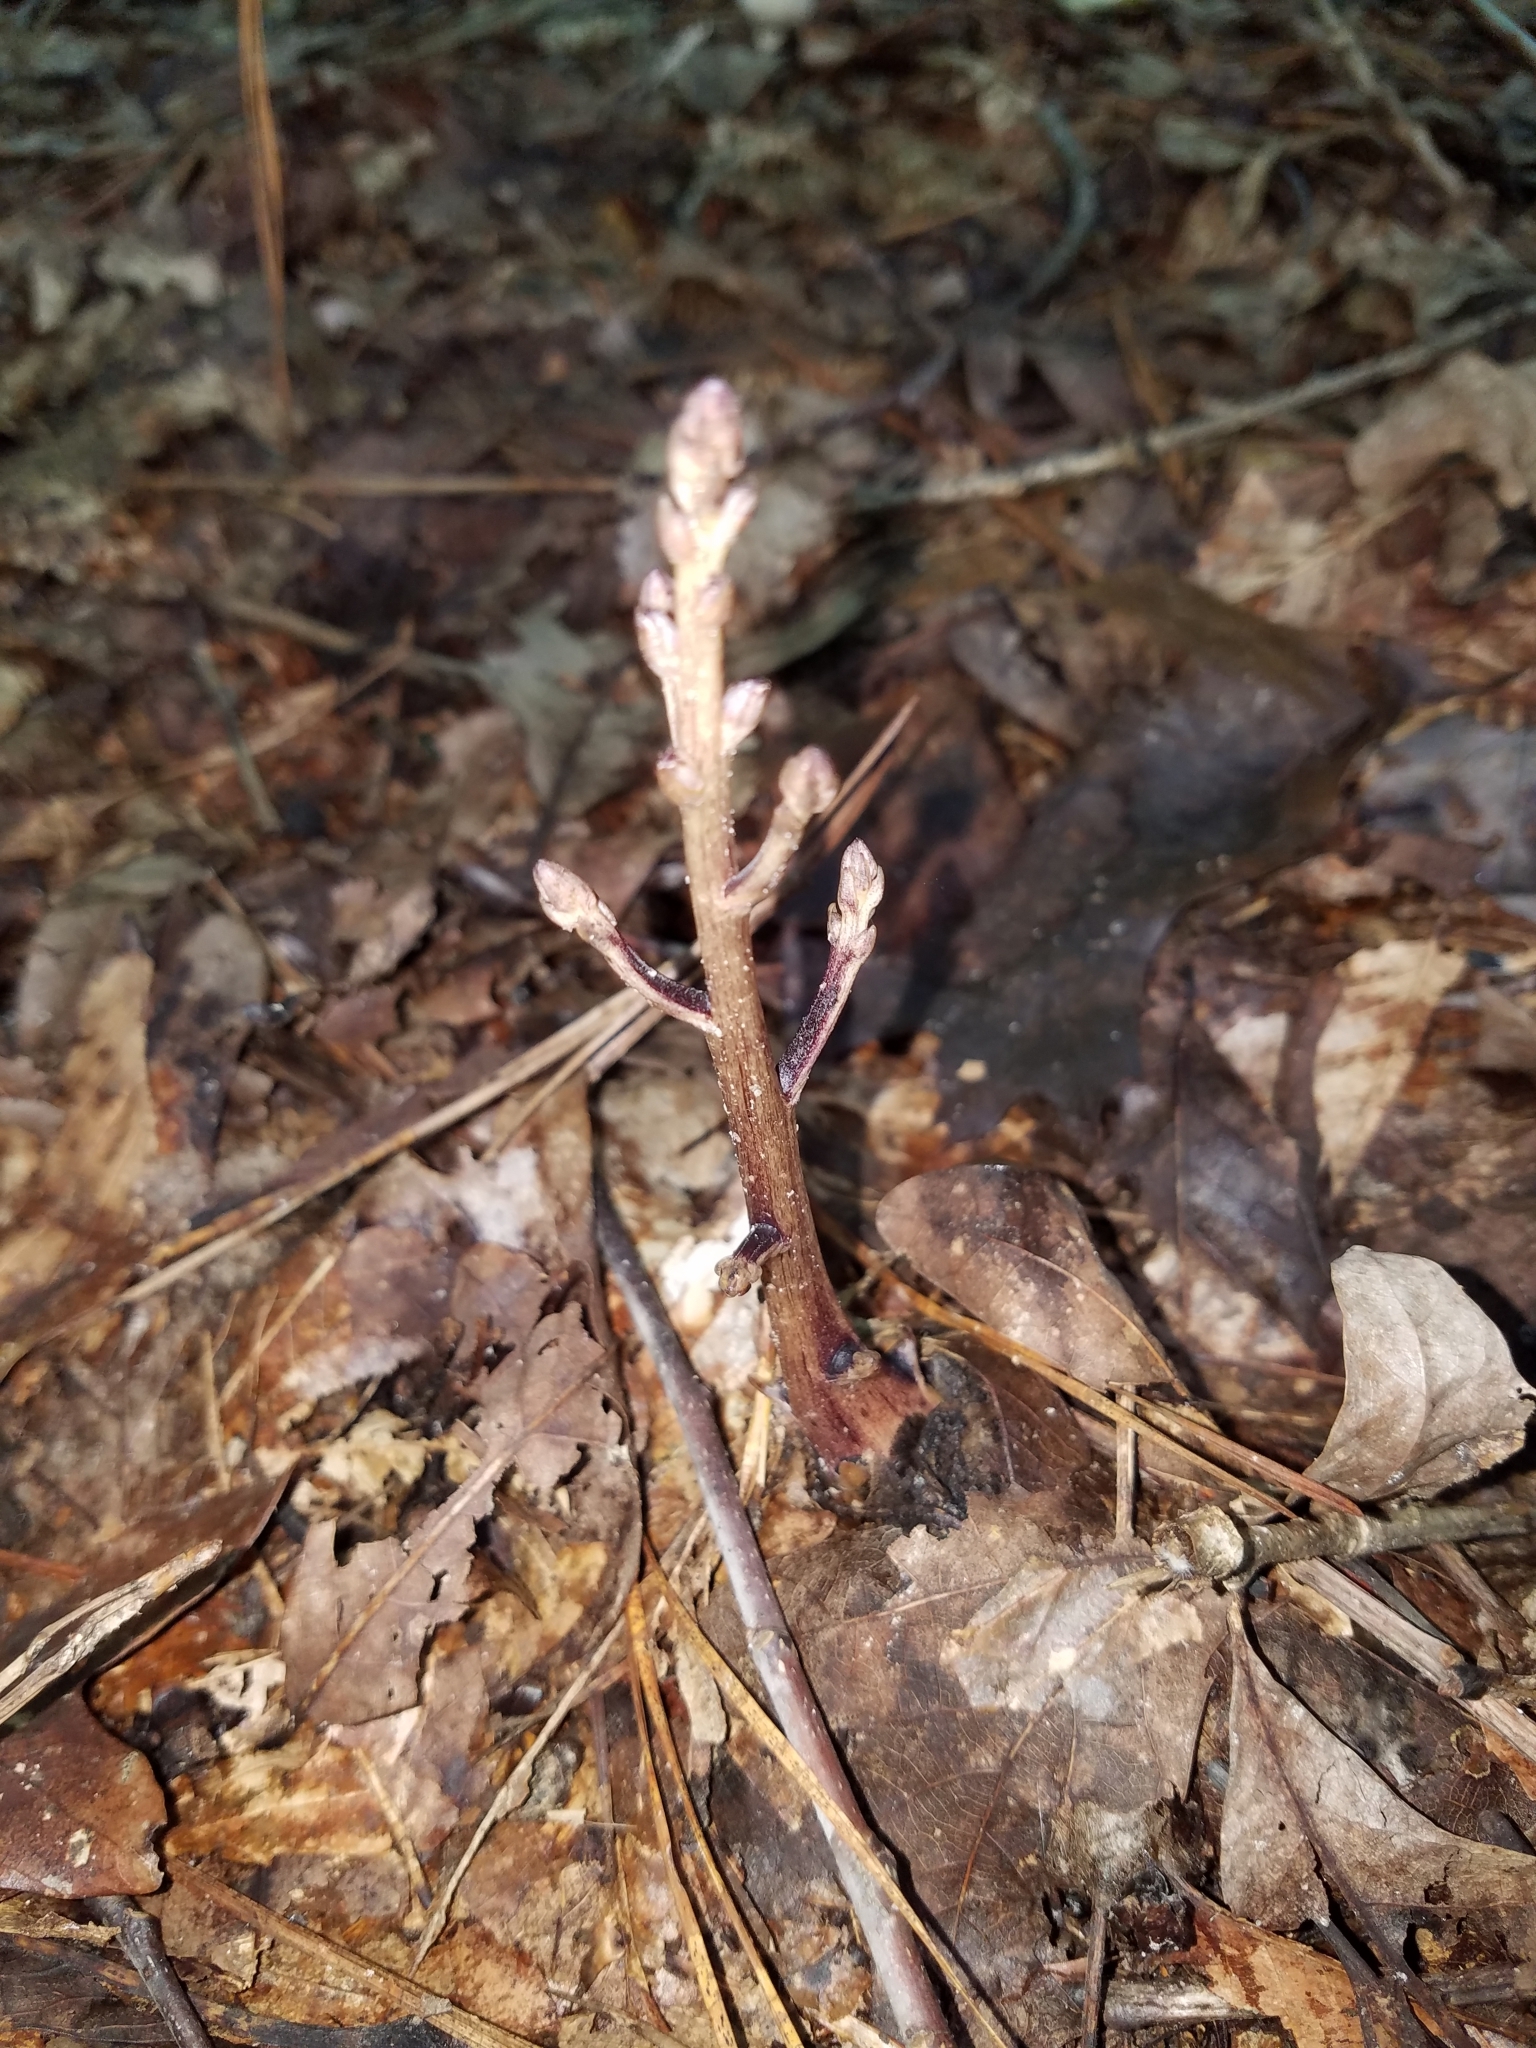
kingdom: Plantae
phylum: Tracheophyta
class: Magnoliopsida
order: Lamiales
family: Orobanchaceae
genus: Epifagus
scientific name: Epifagus virginiana
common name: Beechdrops
